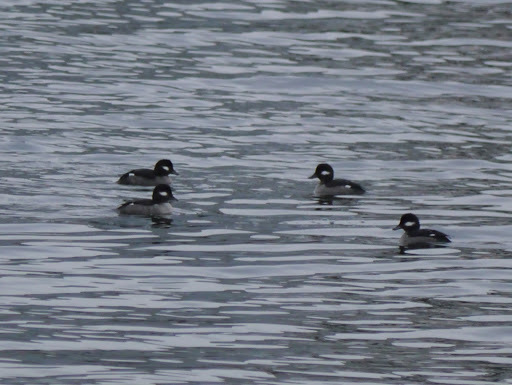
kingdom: Animalia
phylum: Chordata
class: Aves
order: Anseriformes
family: Anatidae
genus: Bucephala
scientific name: Bucephala albeola
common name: Bufflehead
